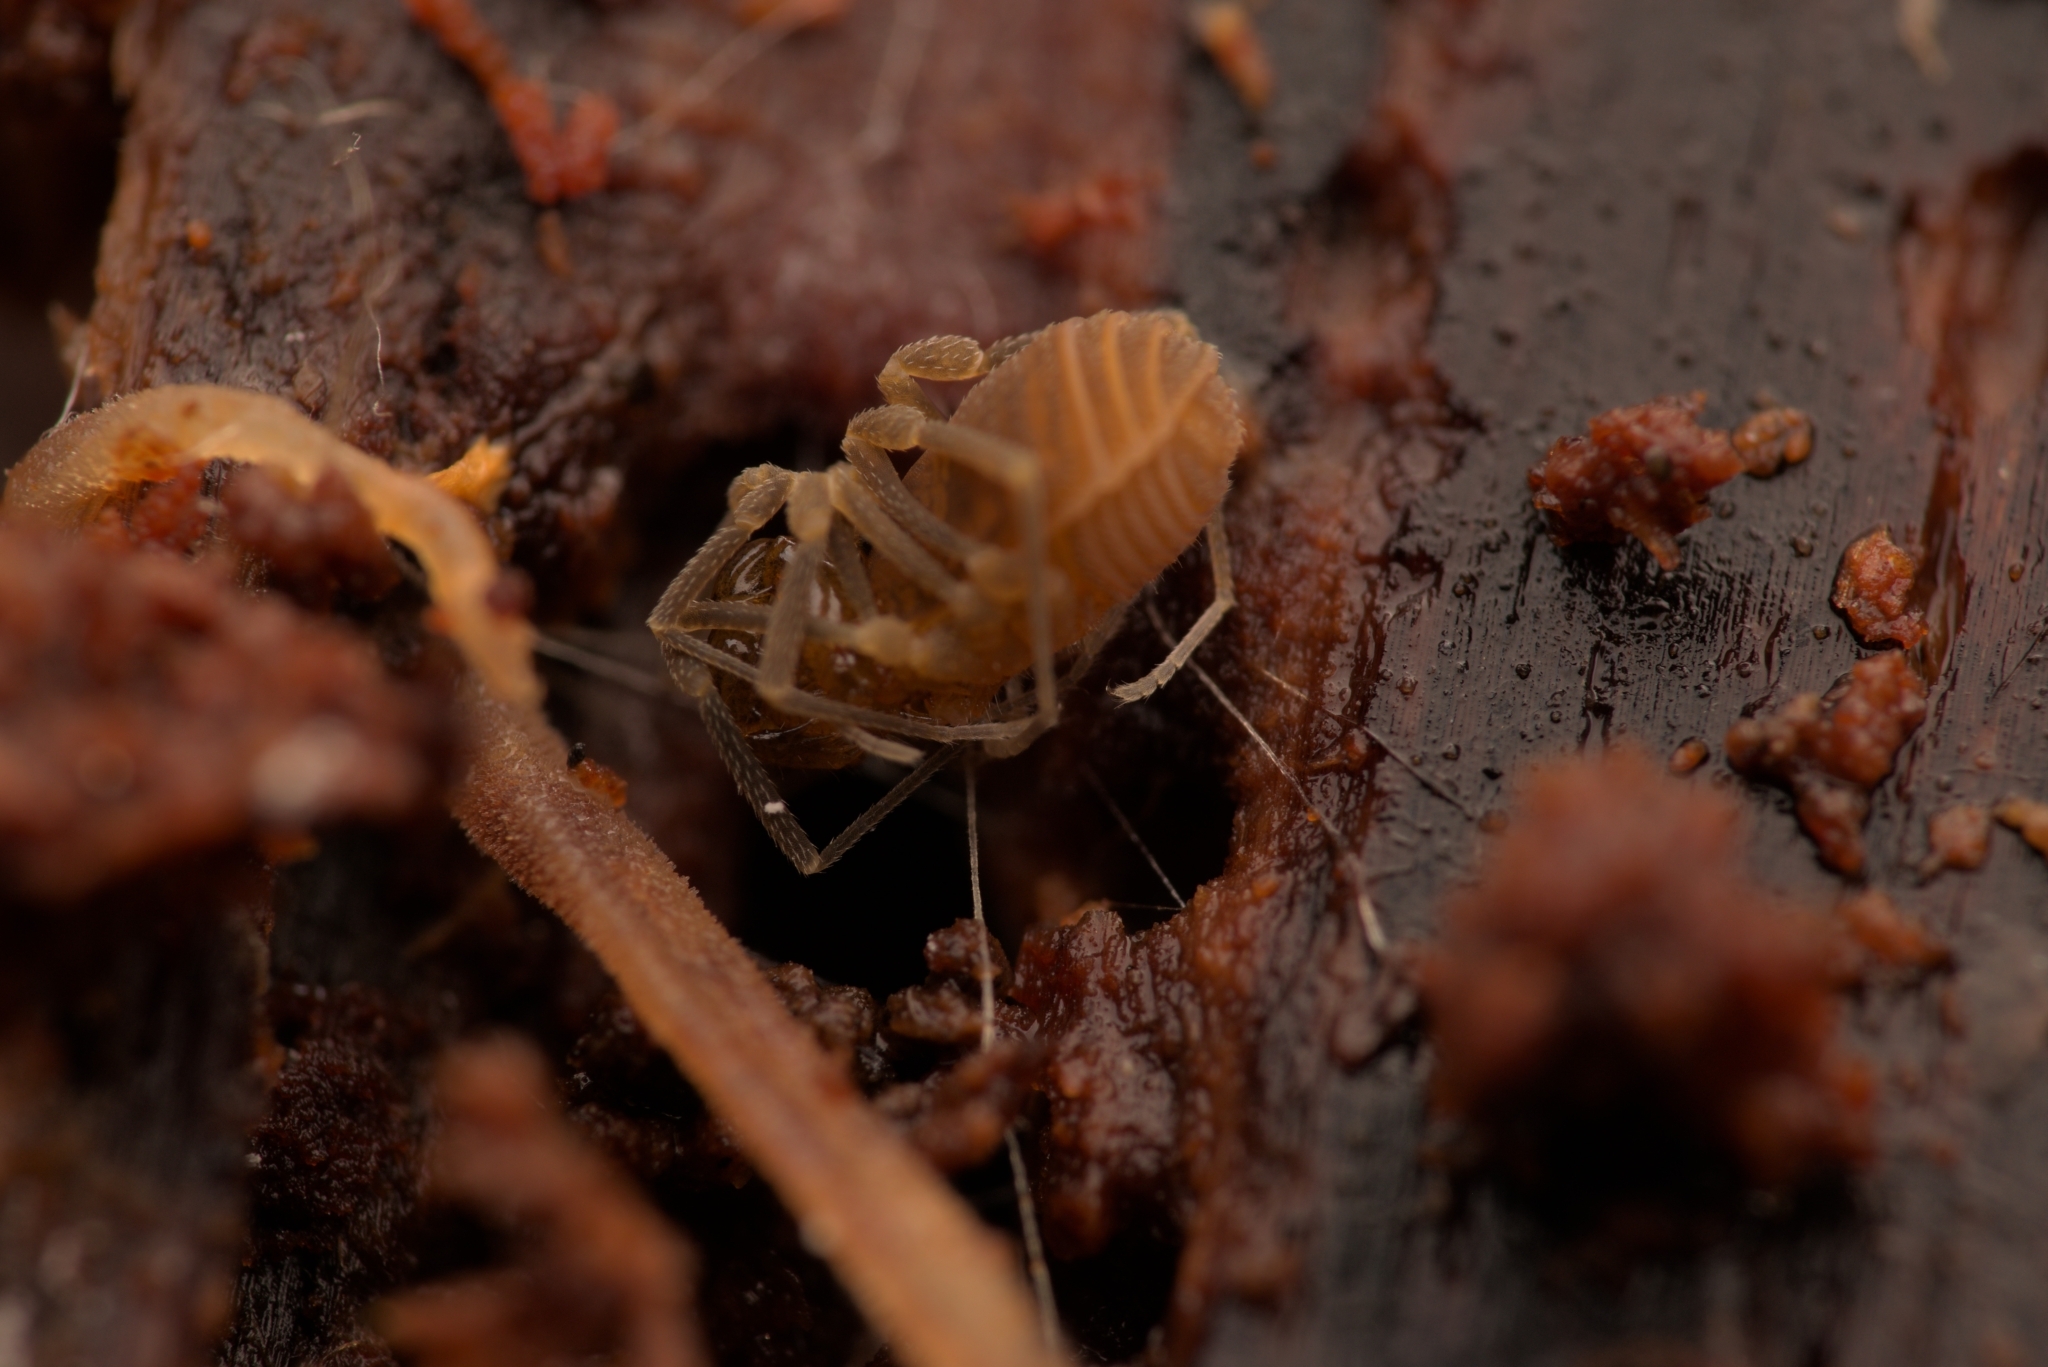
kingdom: Animalia
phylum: Arthropoda
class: Arachnida
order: Opiliones
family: Cladonychiidae
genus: Holoscotolemon
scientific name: Holoscotolemon querilhaci
